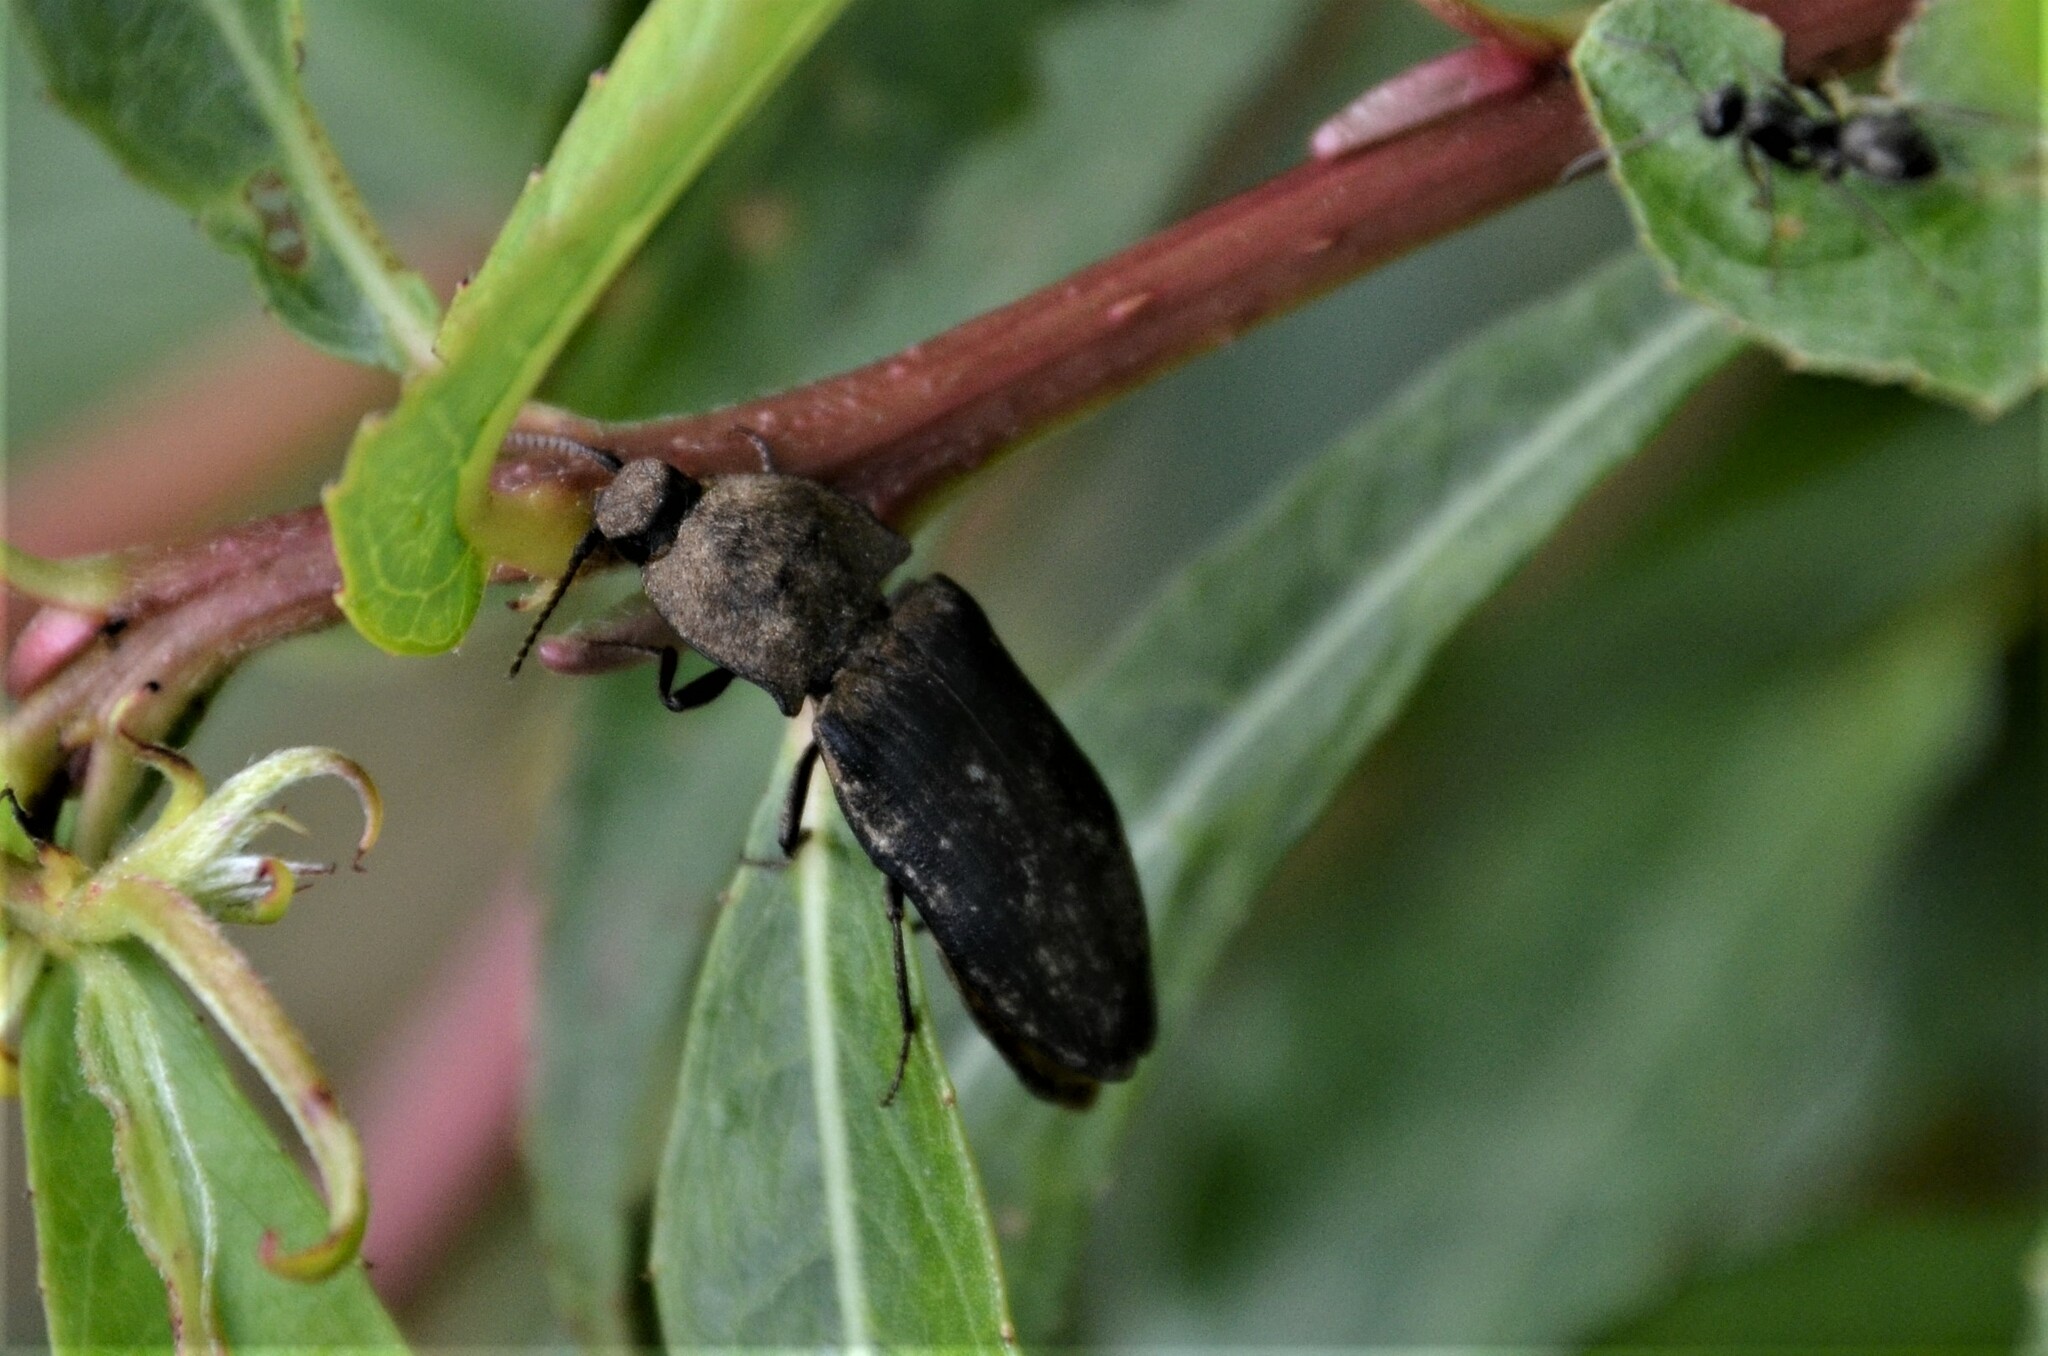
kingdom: Animalia
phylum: Arthropoda
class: Insecta
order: Coleoptera
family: Elateridae
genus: Agrypnus
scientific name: Agrypnus murinus
